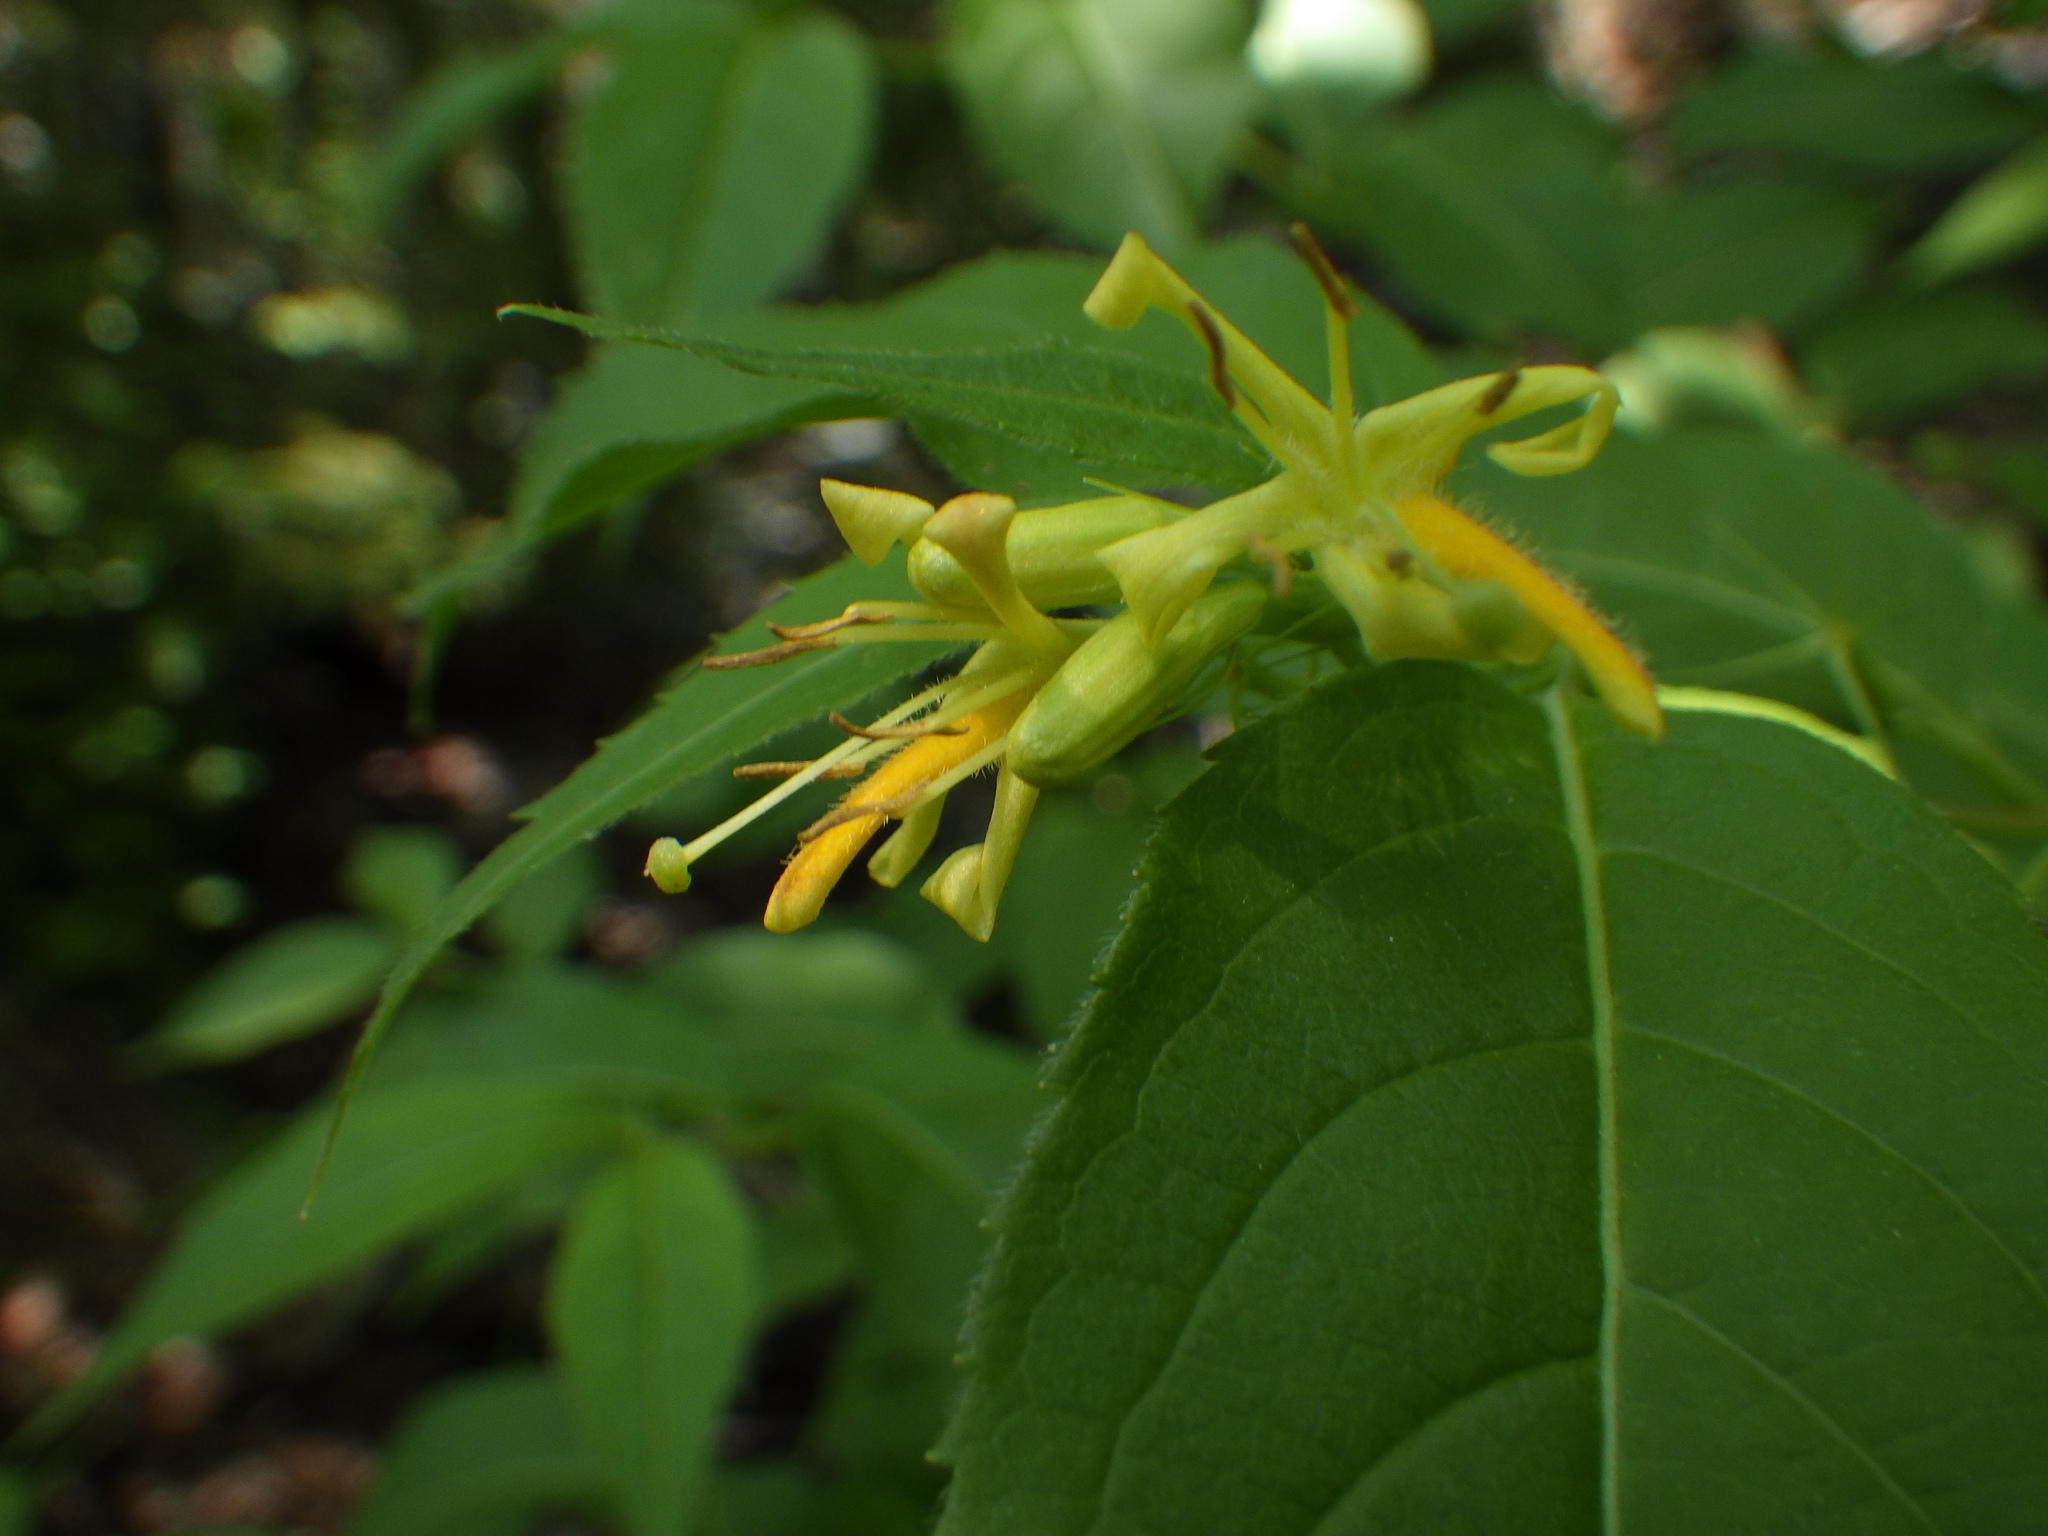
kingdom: Plantae
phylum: Tracheophyta
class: Magnoliopsida
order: Dipsacales
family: Caprifoliaceae
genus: Diervilla
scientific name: Diervilla lonicera
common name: Bush-honeysuckle
